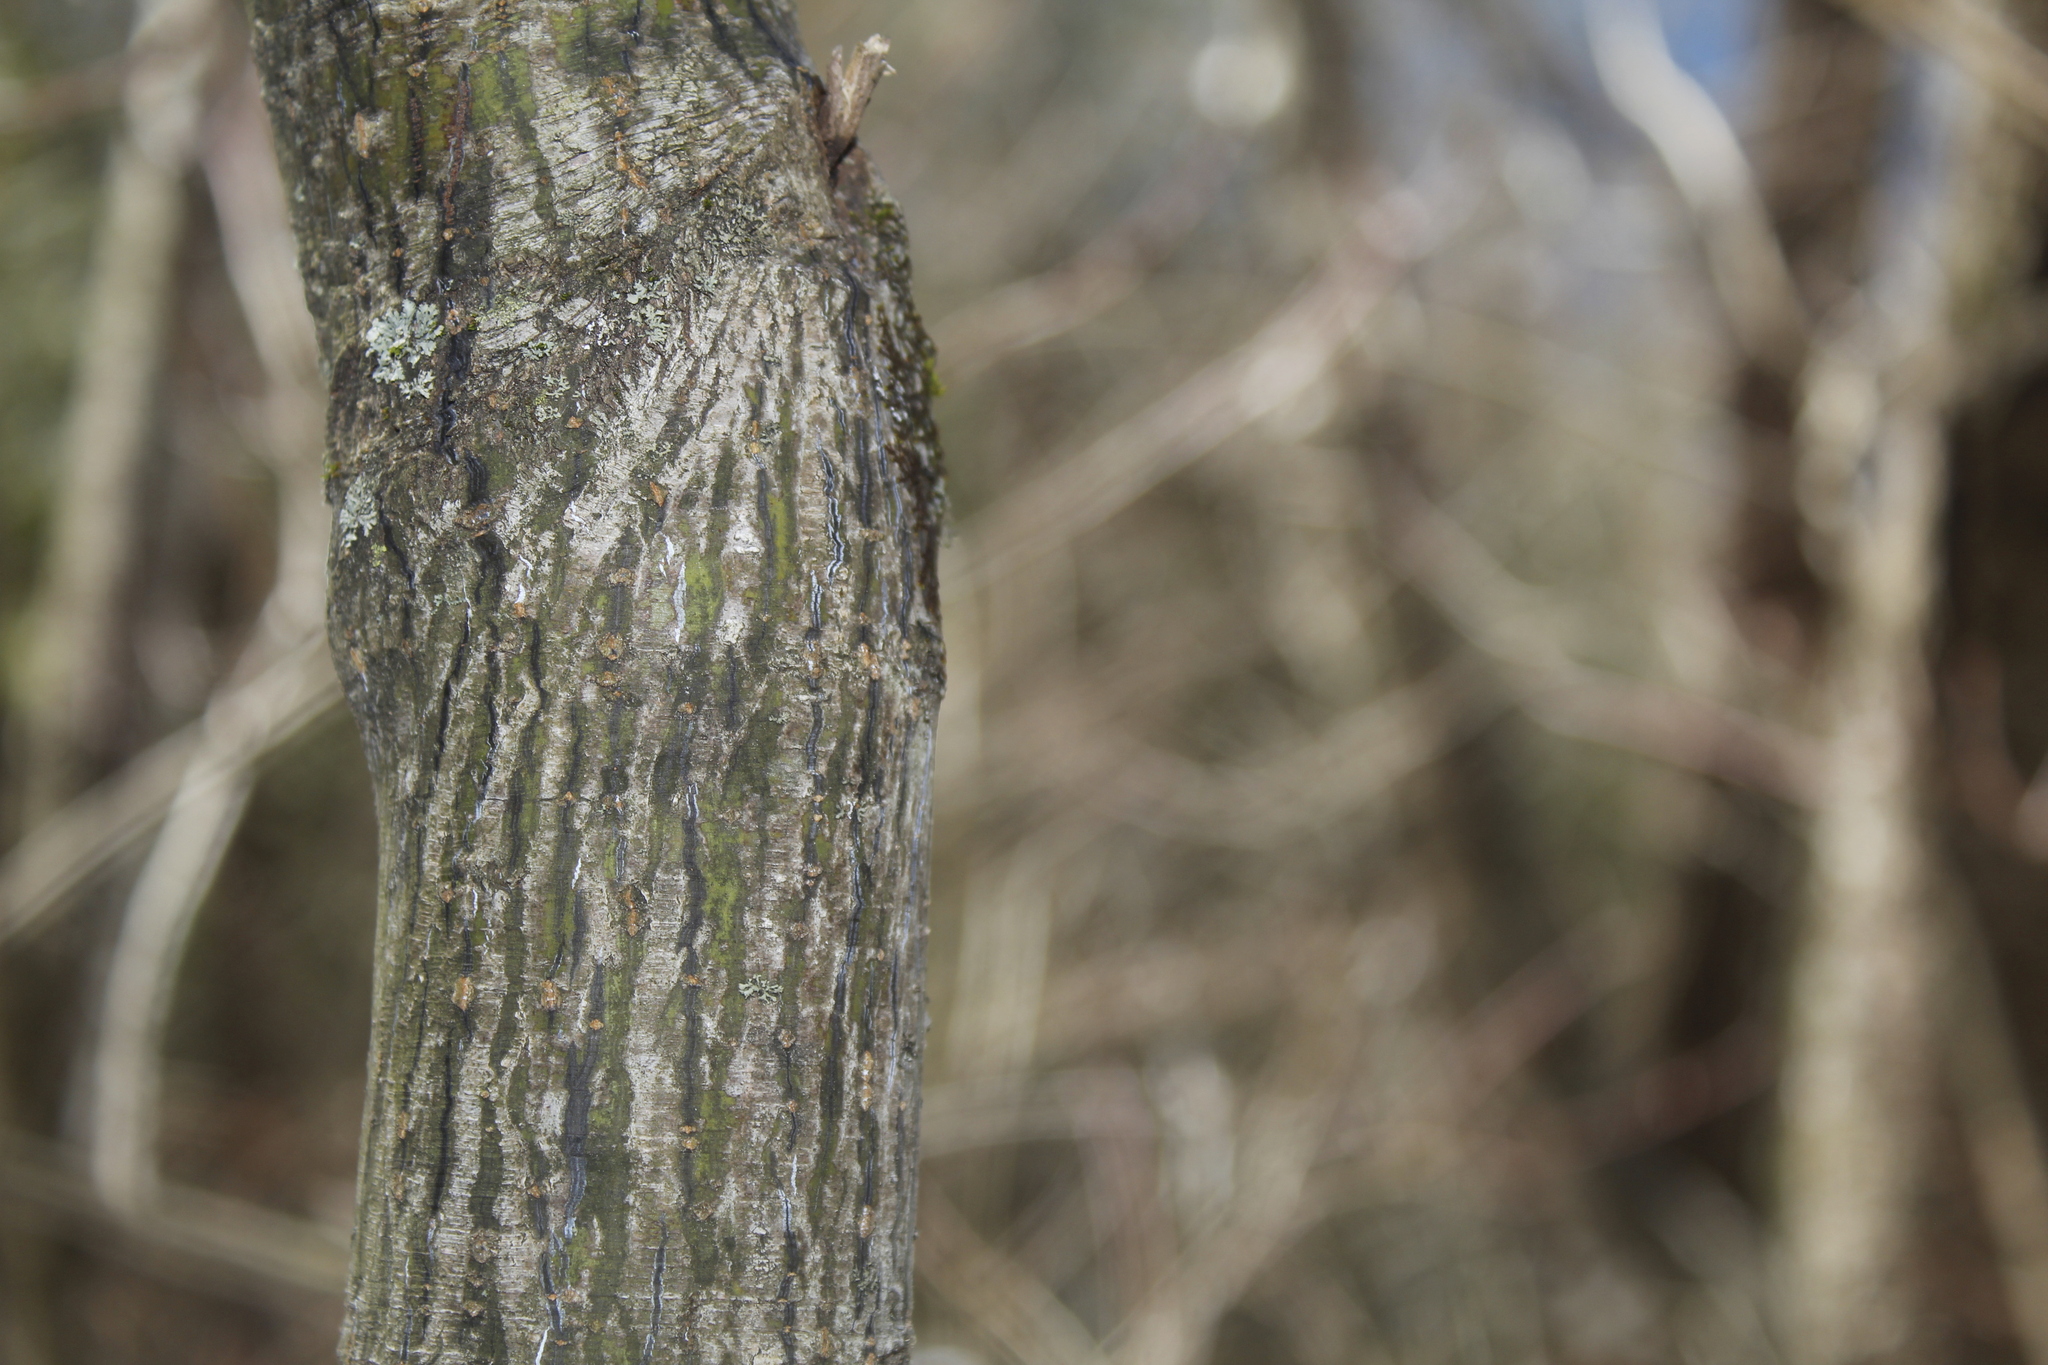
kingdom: Plantae
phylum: Tracheophyta
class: Magnoliopsida
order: Sapindales
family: Sapindaceae
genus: Acer
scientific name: Acer pensylvanicum
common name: Moosewood
